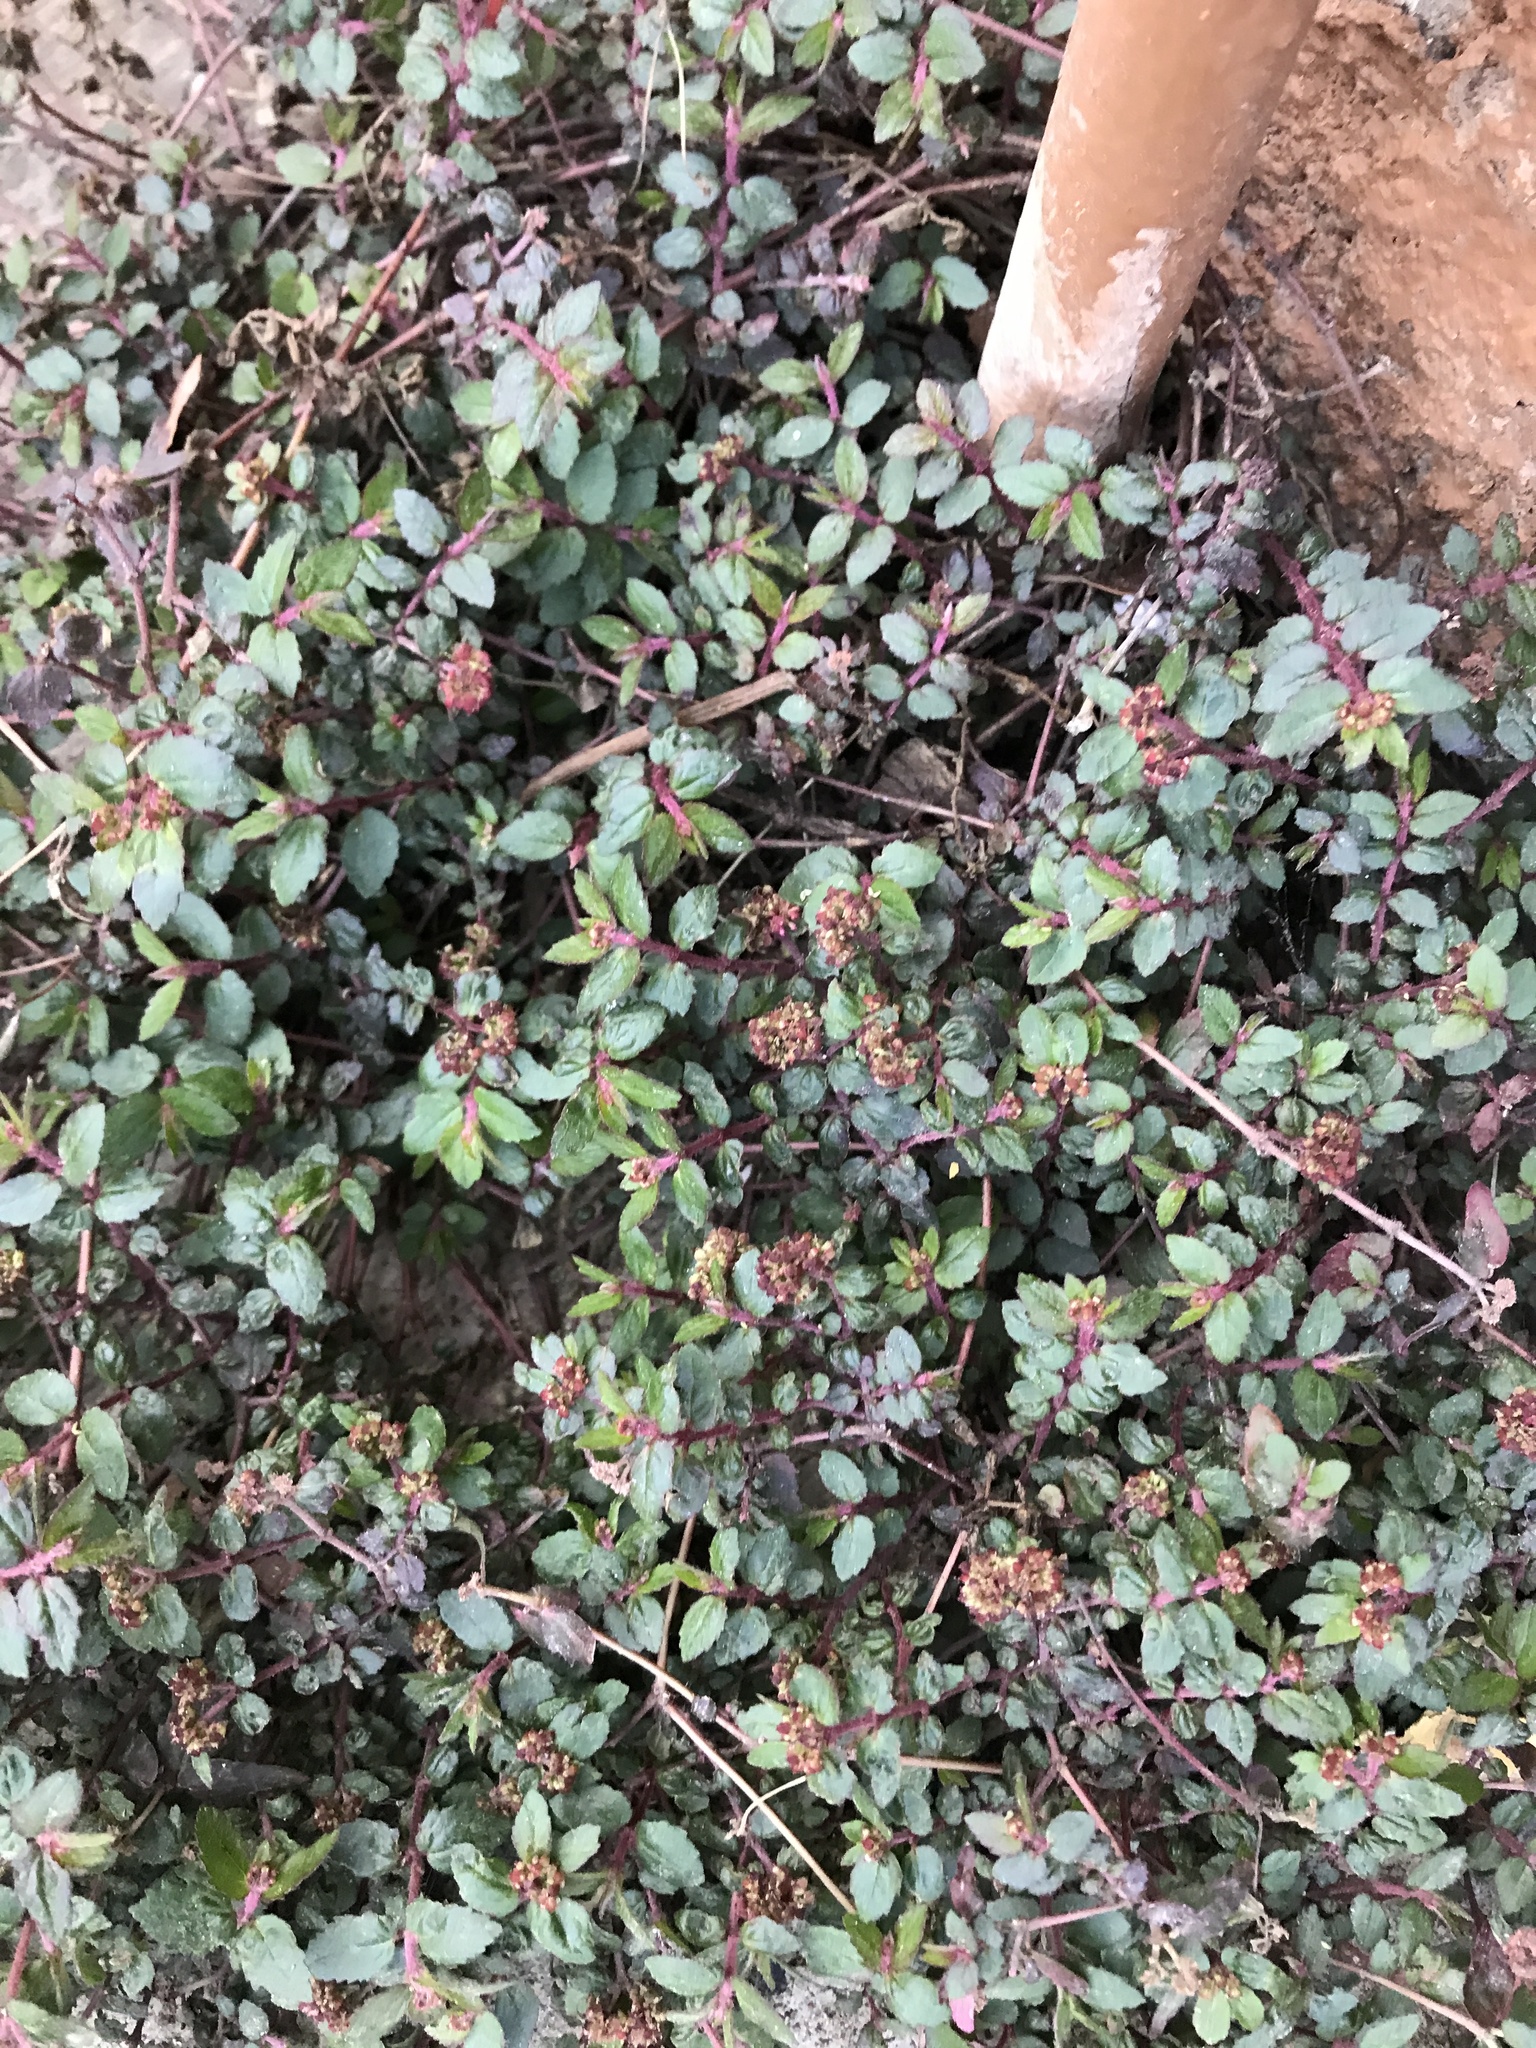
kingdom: Plantae
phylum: Tracheophyta
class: Magnoliopsida
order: Malpighiales
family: Euphorbiaceae
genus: Euphorbia
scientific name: Euphorbia ophthalmica
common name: Florida hammock sandmat
